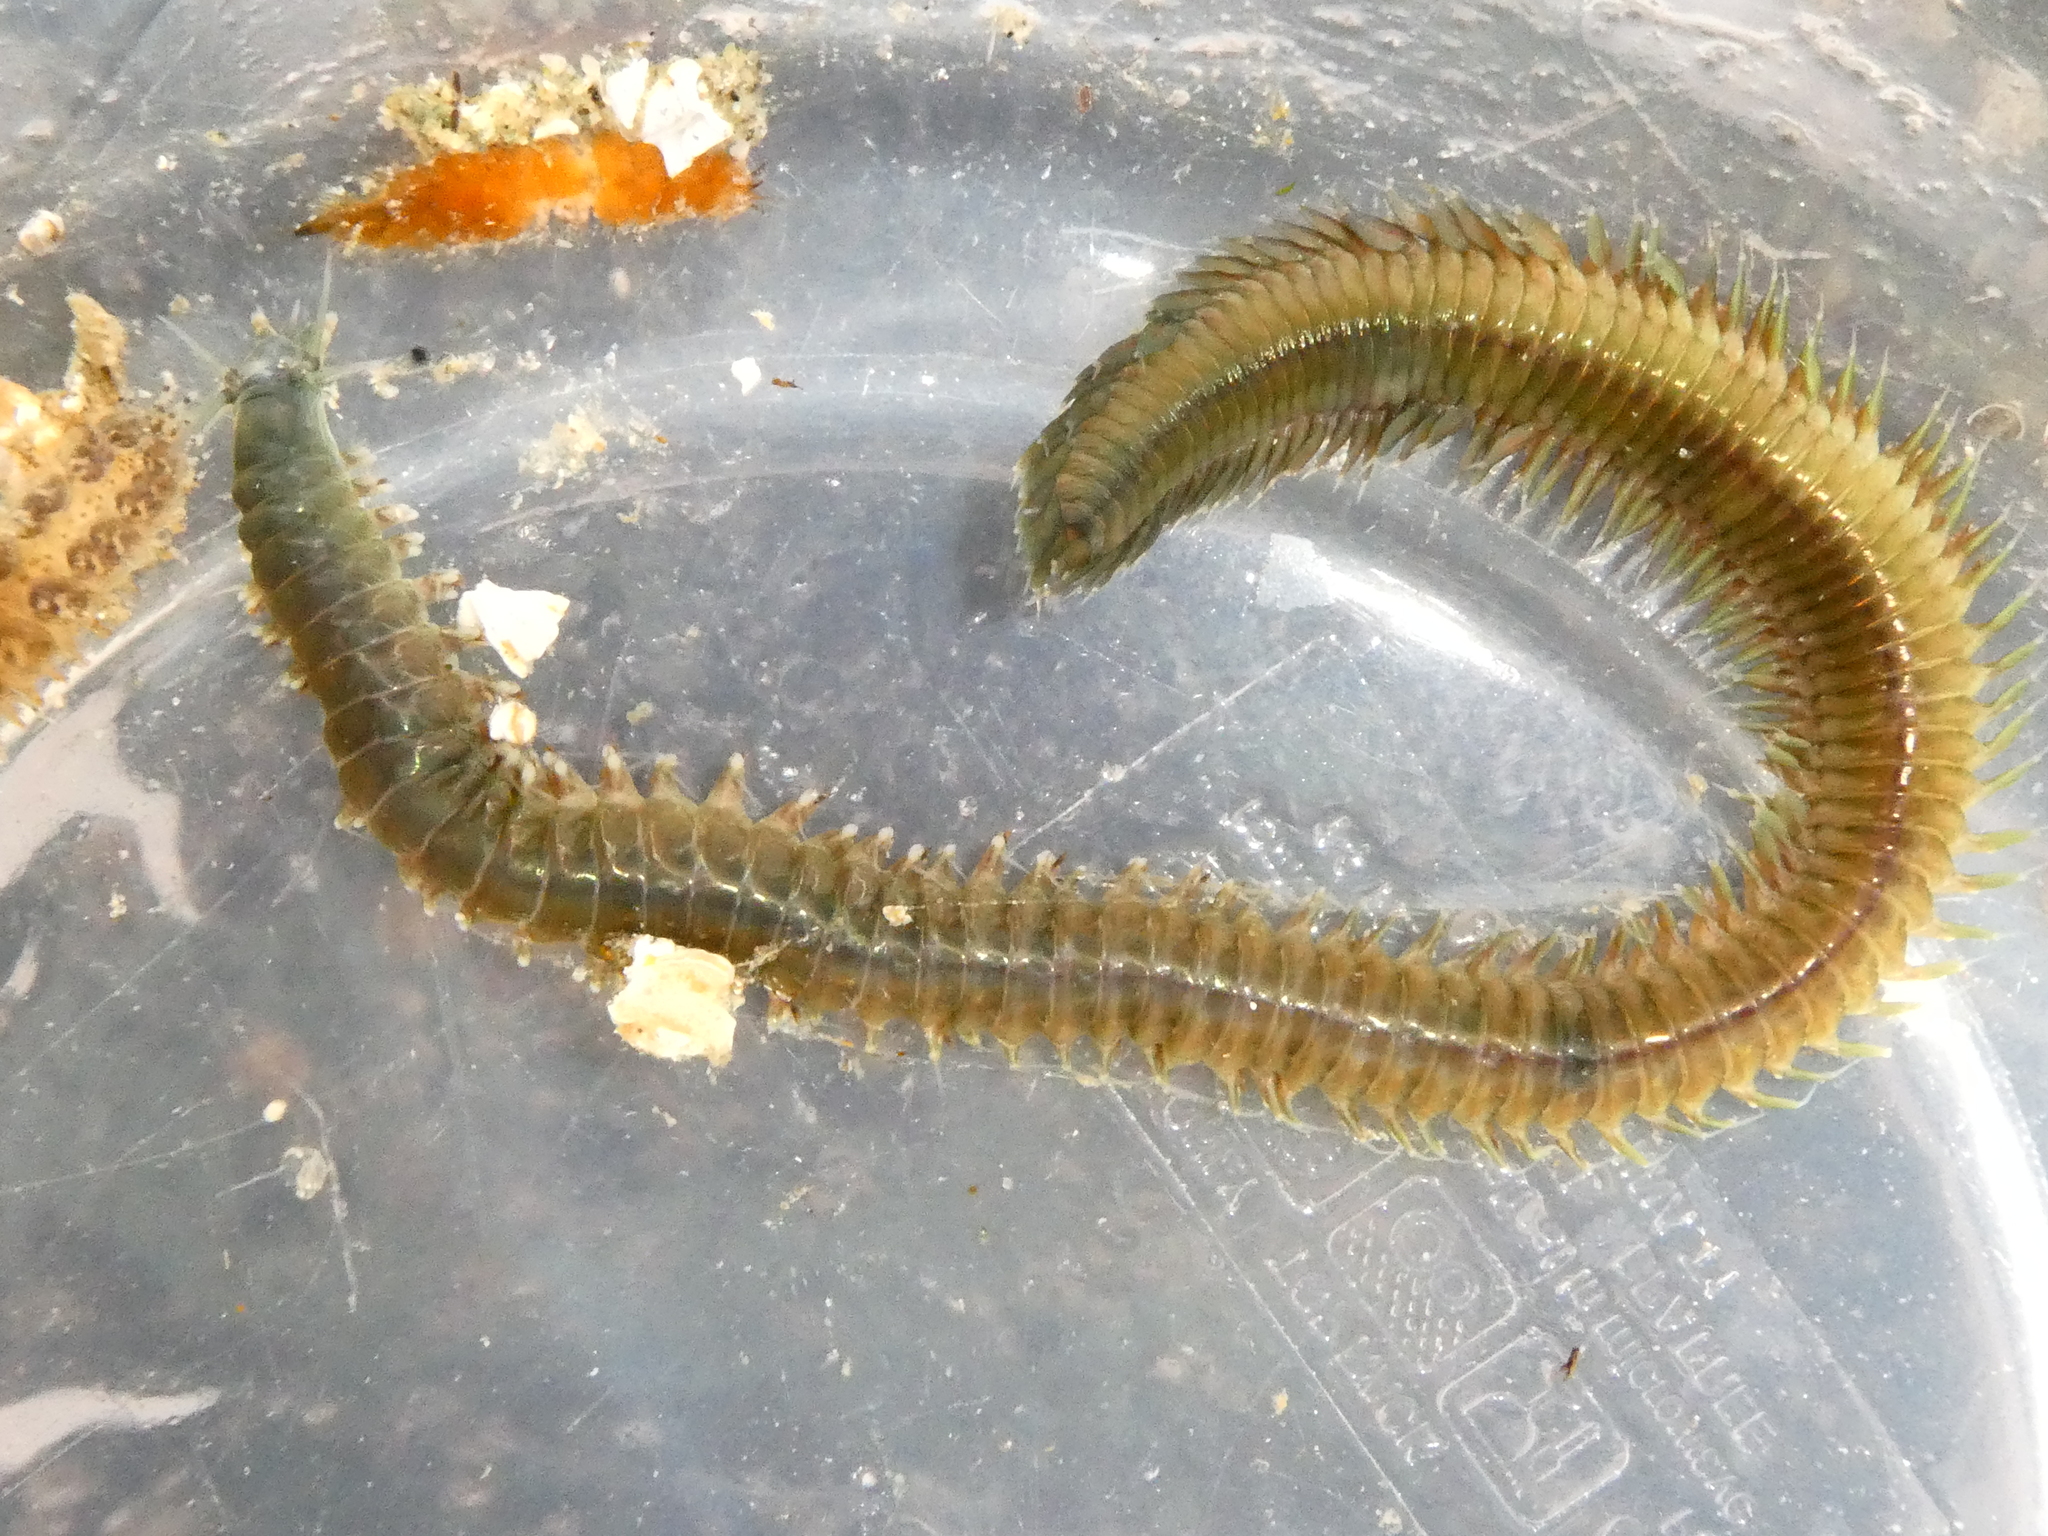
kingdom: Animalia
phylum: Annelida
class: Polychaeta
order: Phyllodocida
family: Nereididae
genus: Nereis
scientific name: Nereis vexillosa
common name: Mussel worm
